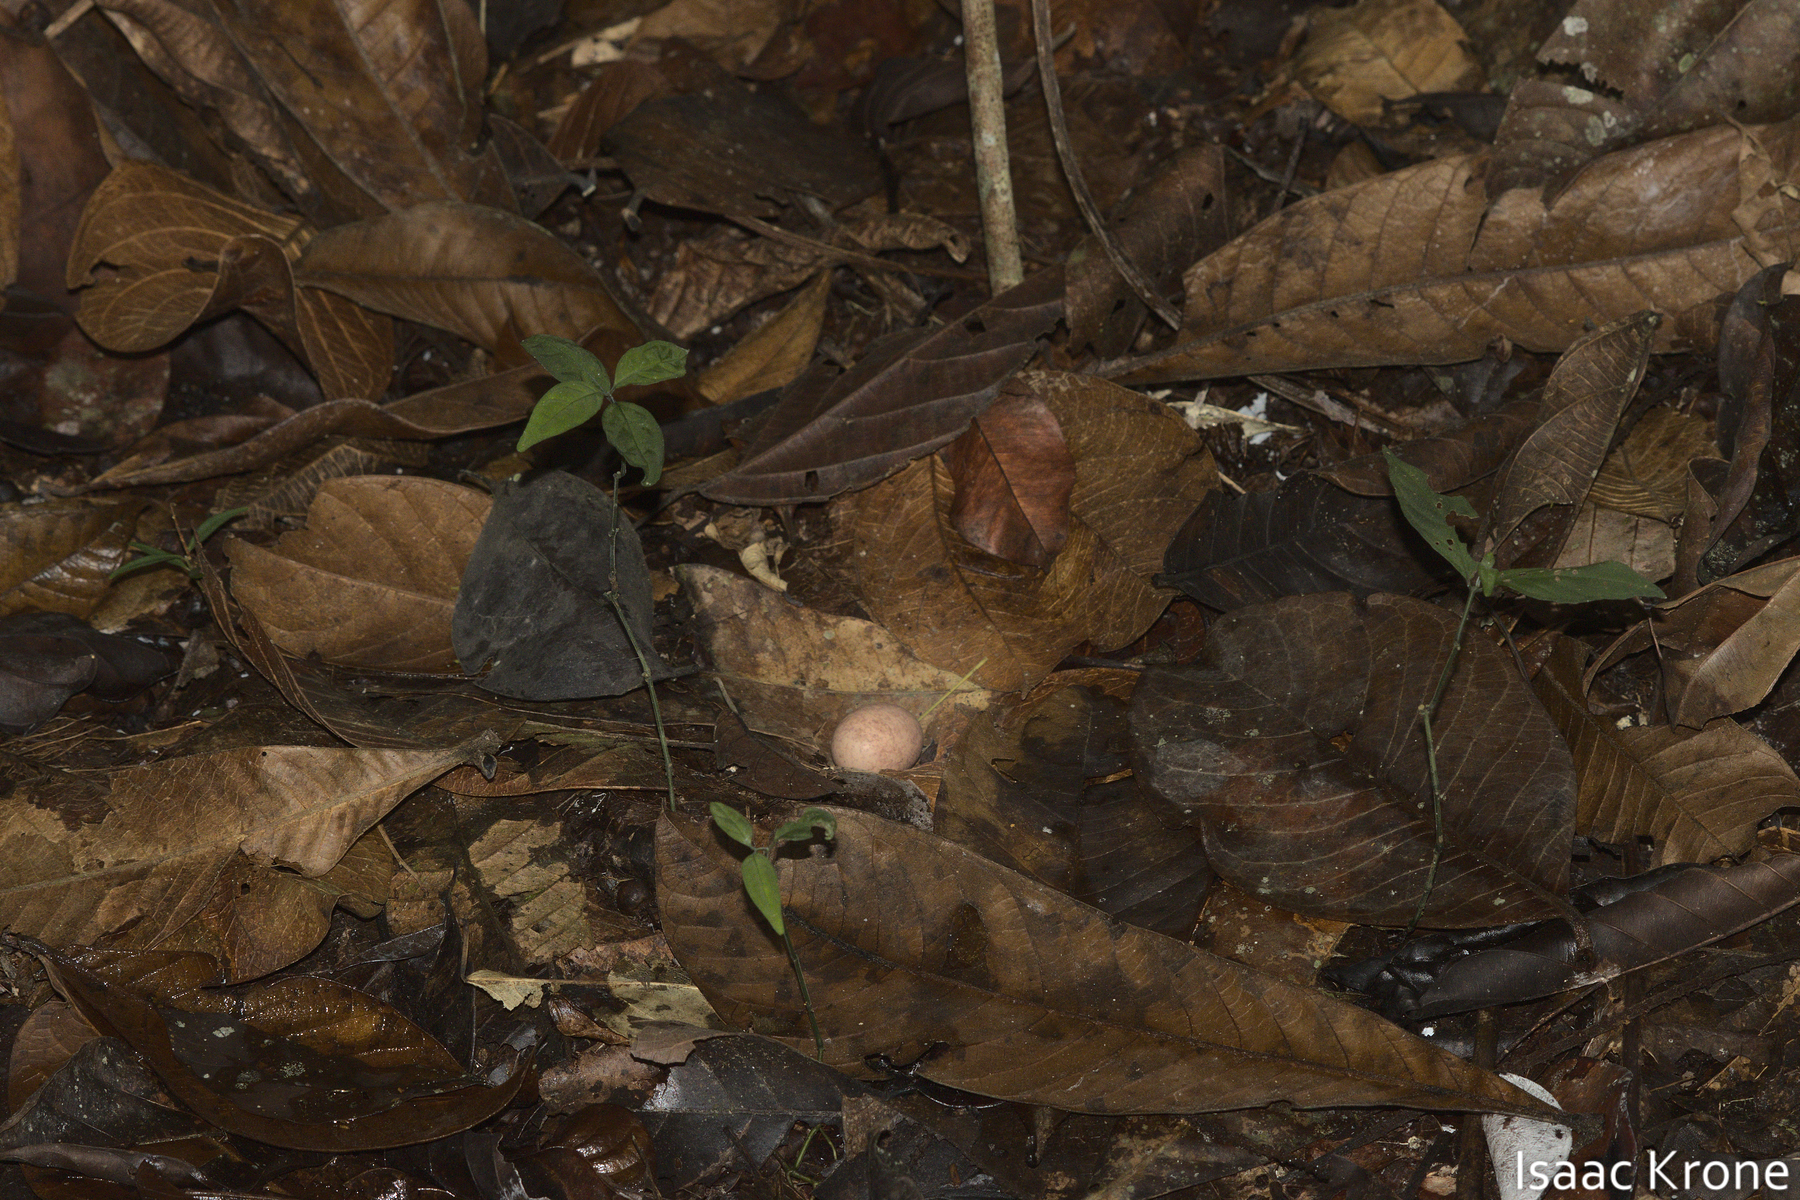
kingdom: Animalia
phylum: Chordata
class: Aves
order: Caprimulgiformes
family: Caprimulgidae
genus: Nyctidromus
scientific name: Nyctidromus albicollis
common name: Pauraque
